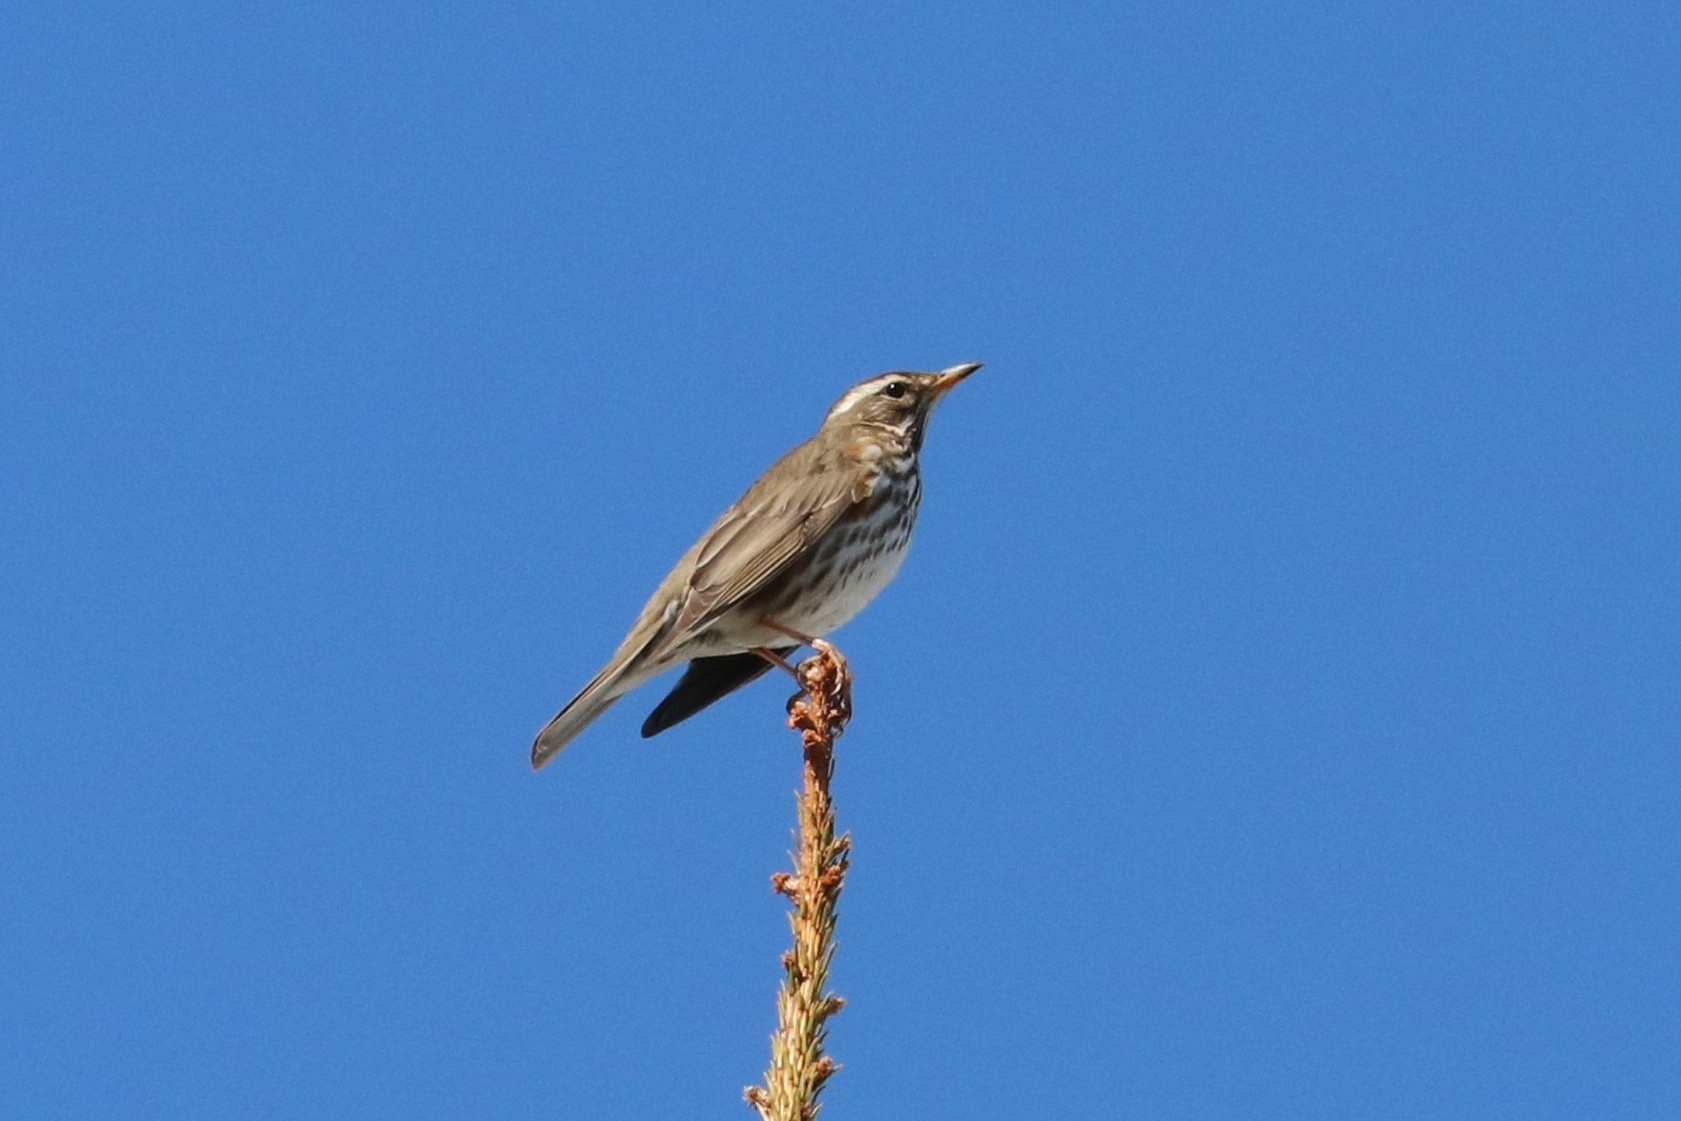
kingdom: Animalia
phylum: Chordata
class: Aves
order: Passeriformes
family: Turdidae
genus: Turdus
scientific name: Turdus iliacus
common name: Redwing
